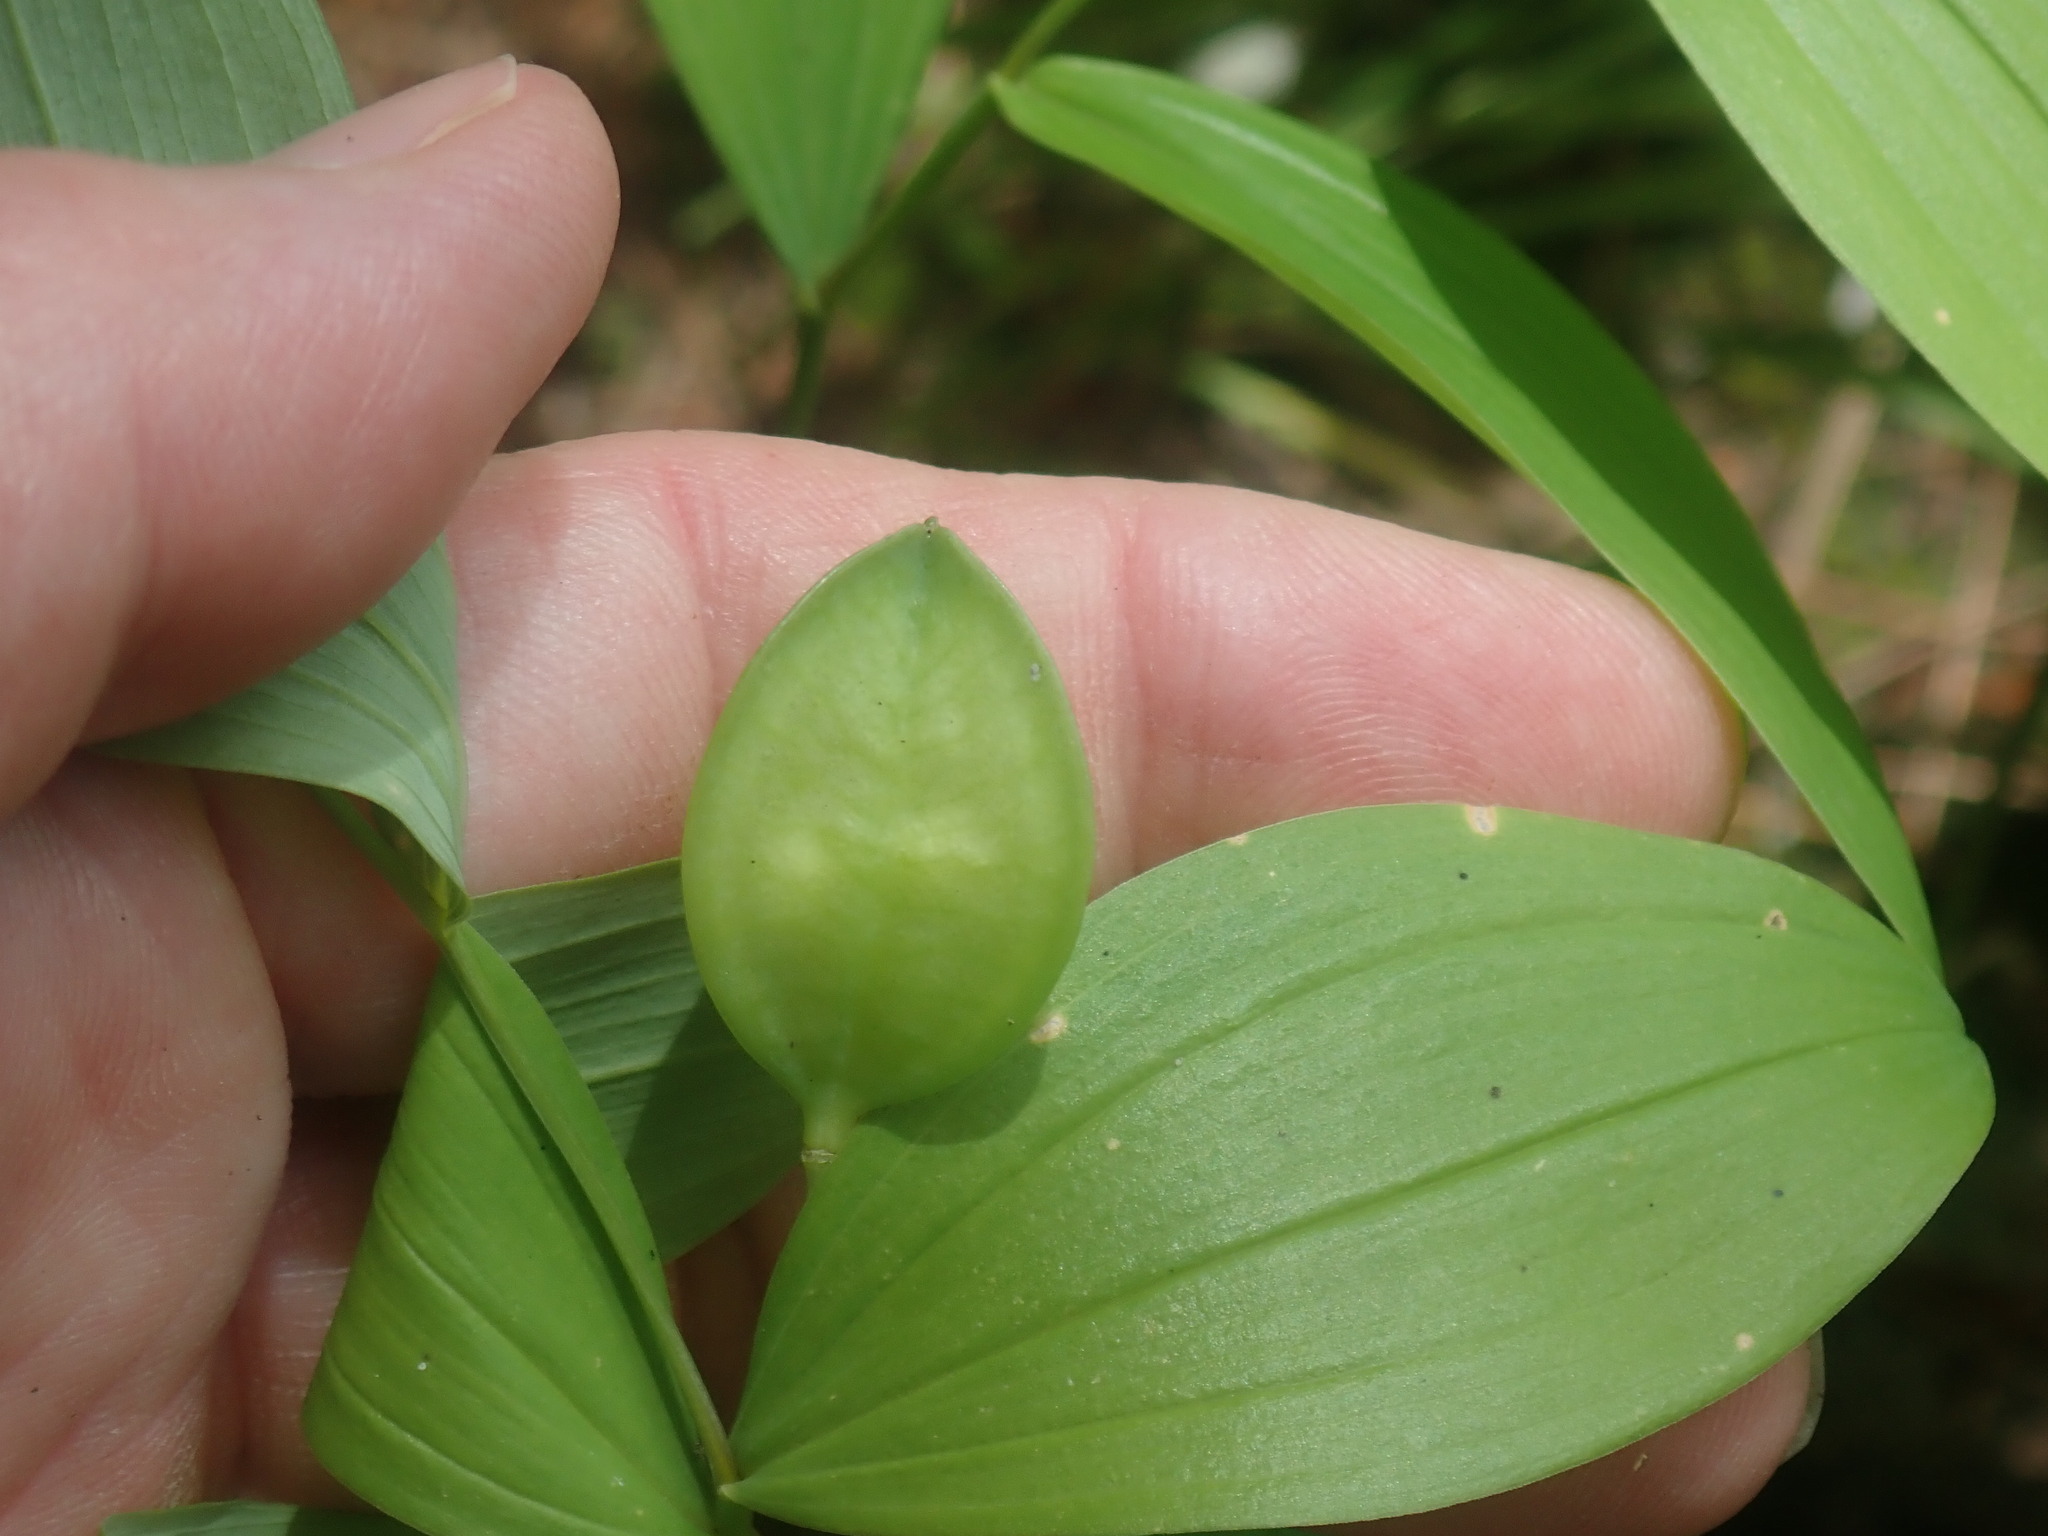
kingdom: Plantae
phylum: Tracheophyta
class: Liliopsida
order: Liliales
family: Colchicaceae
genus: Uvularia
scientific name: Uvularia sessilifolia
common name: Straw-lily
